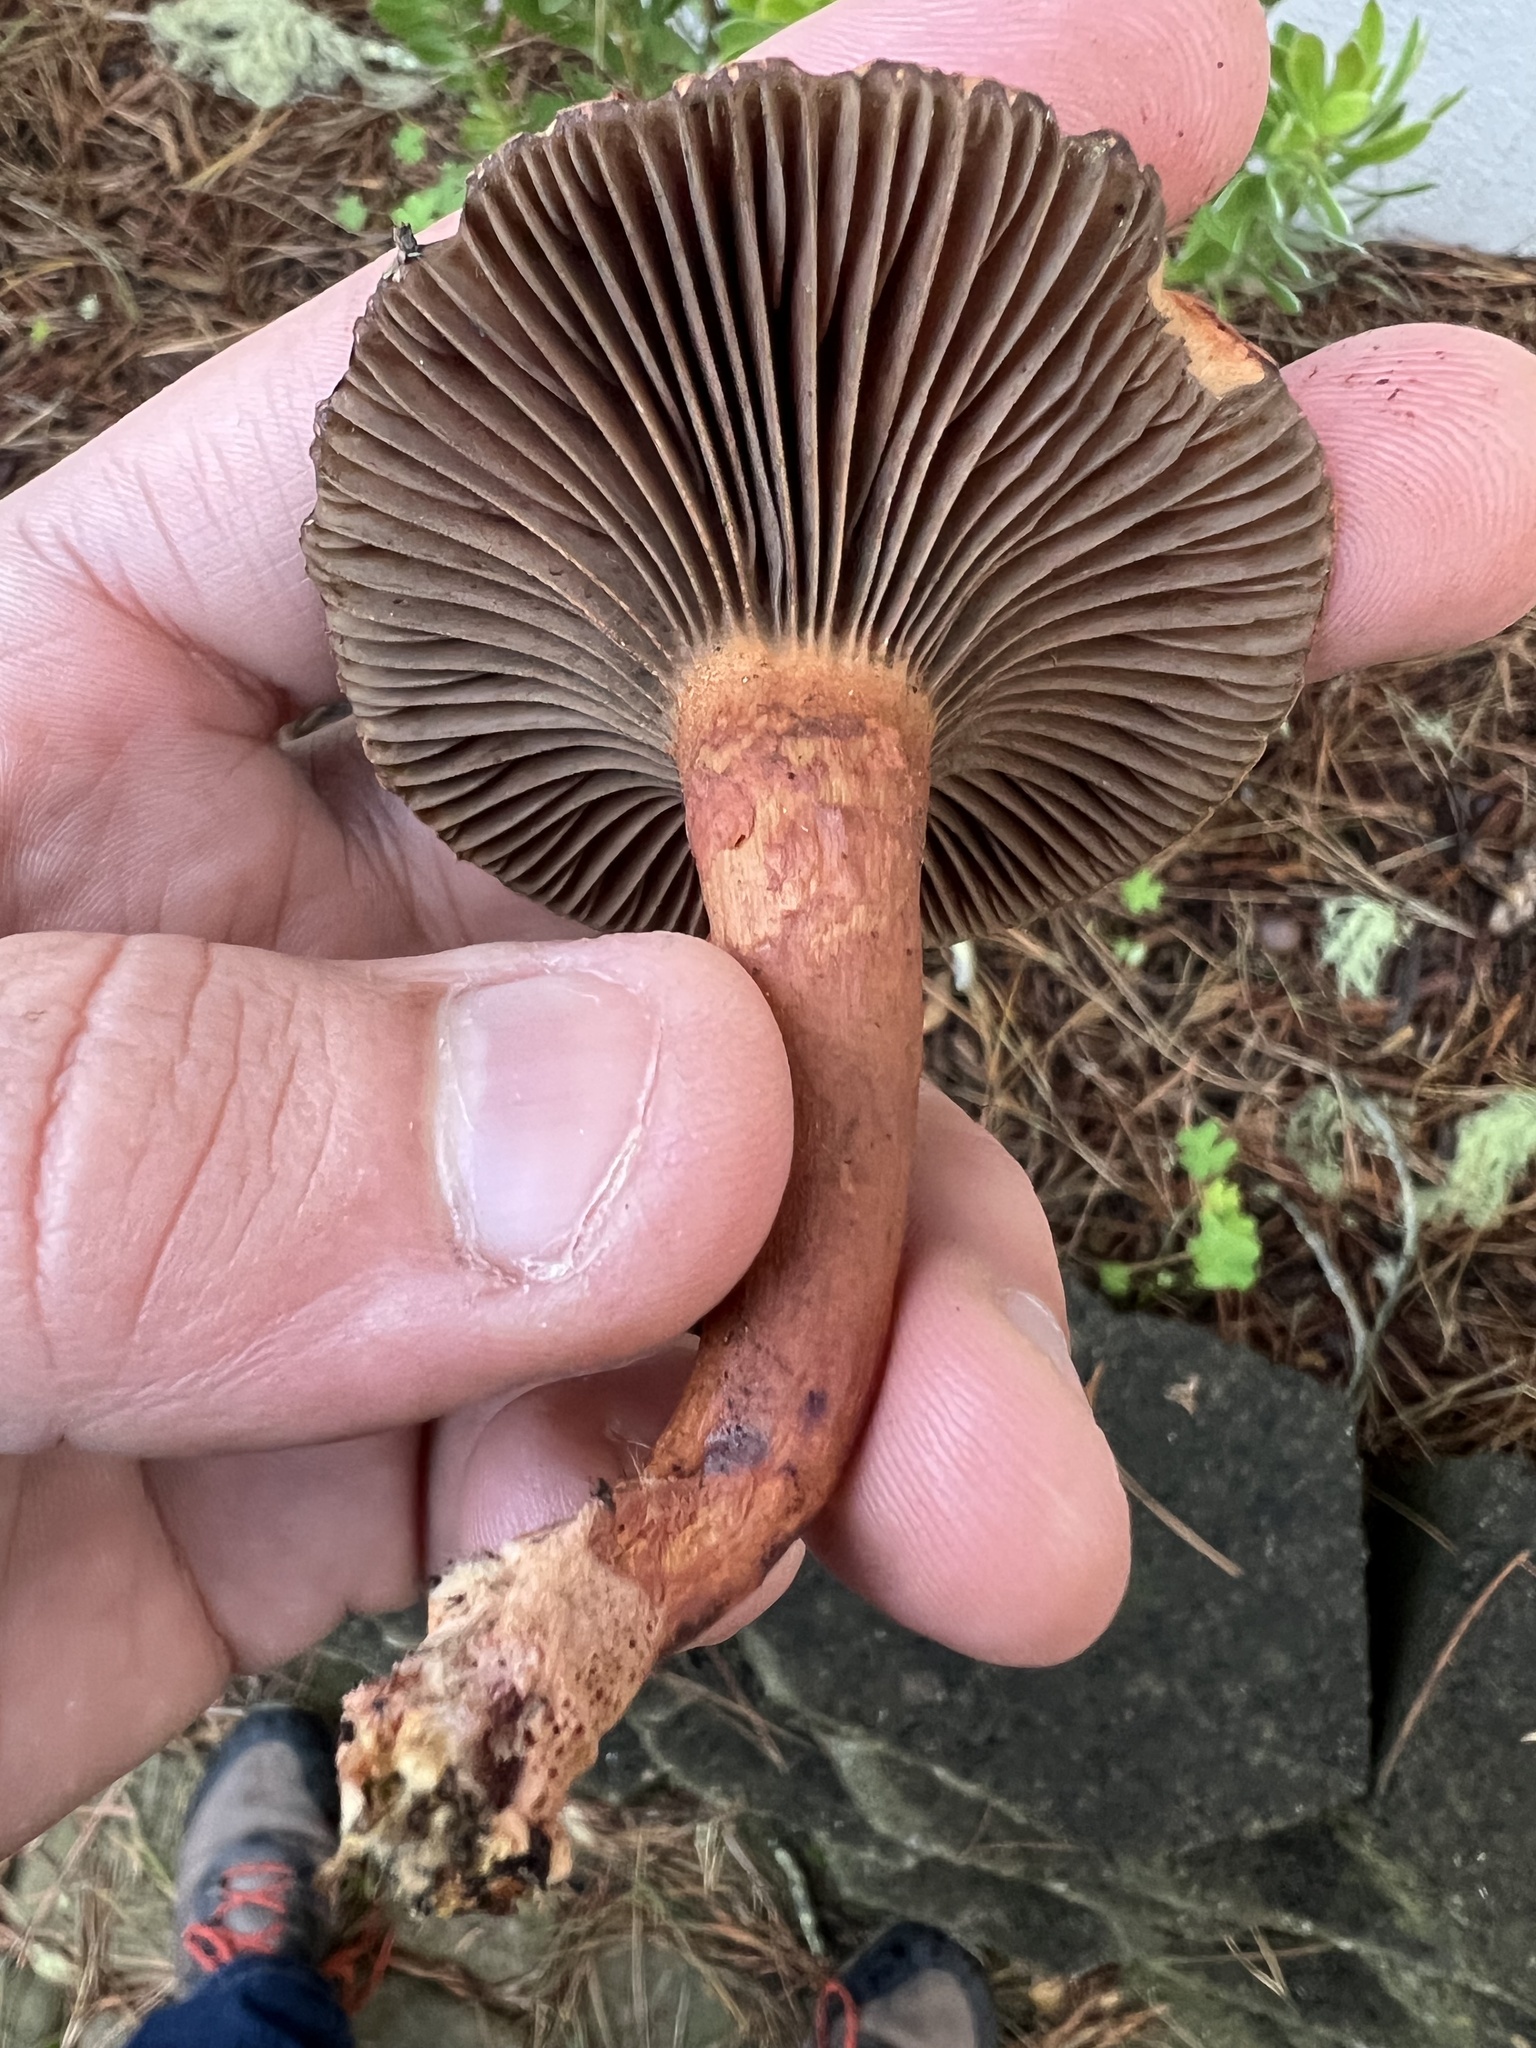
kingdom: Fungi
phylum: Basidiomycota
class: Agaricomycetes
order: Boletales
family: Gomphidiaceae
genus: Chroogomphus
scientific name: Chroogomphus vinicolor
